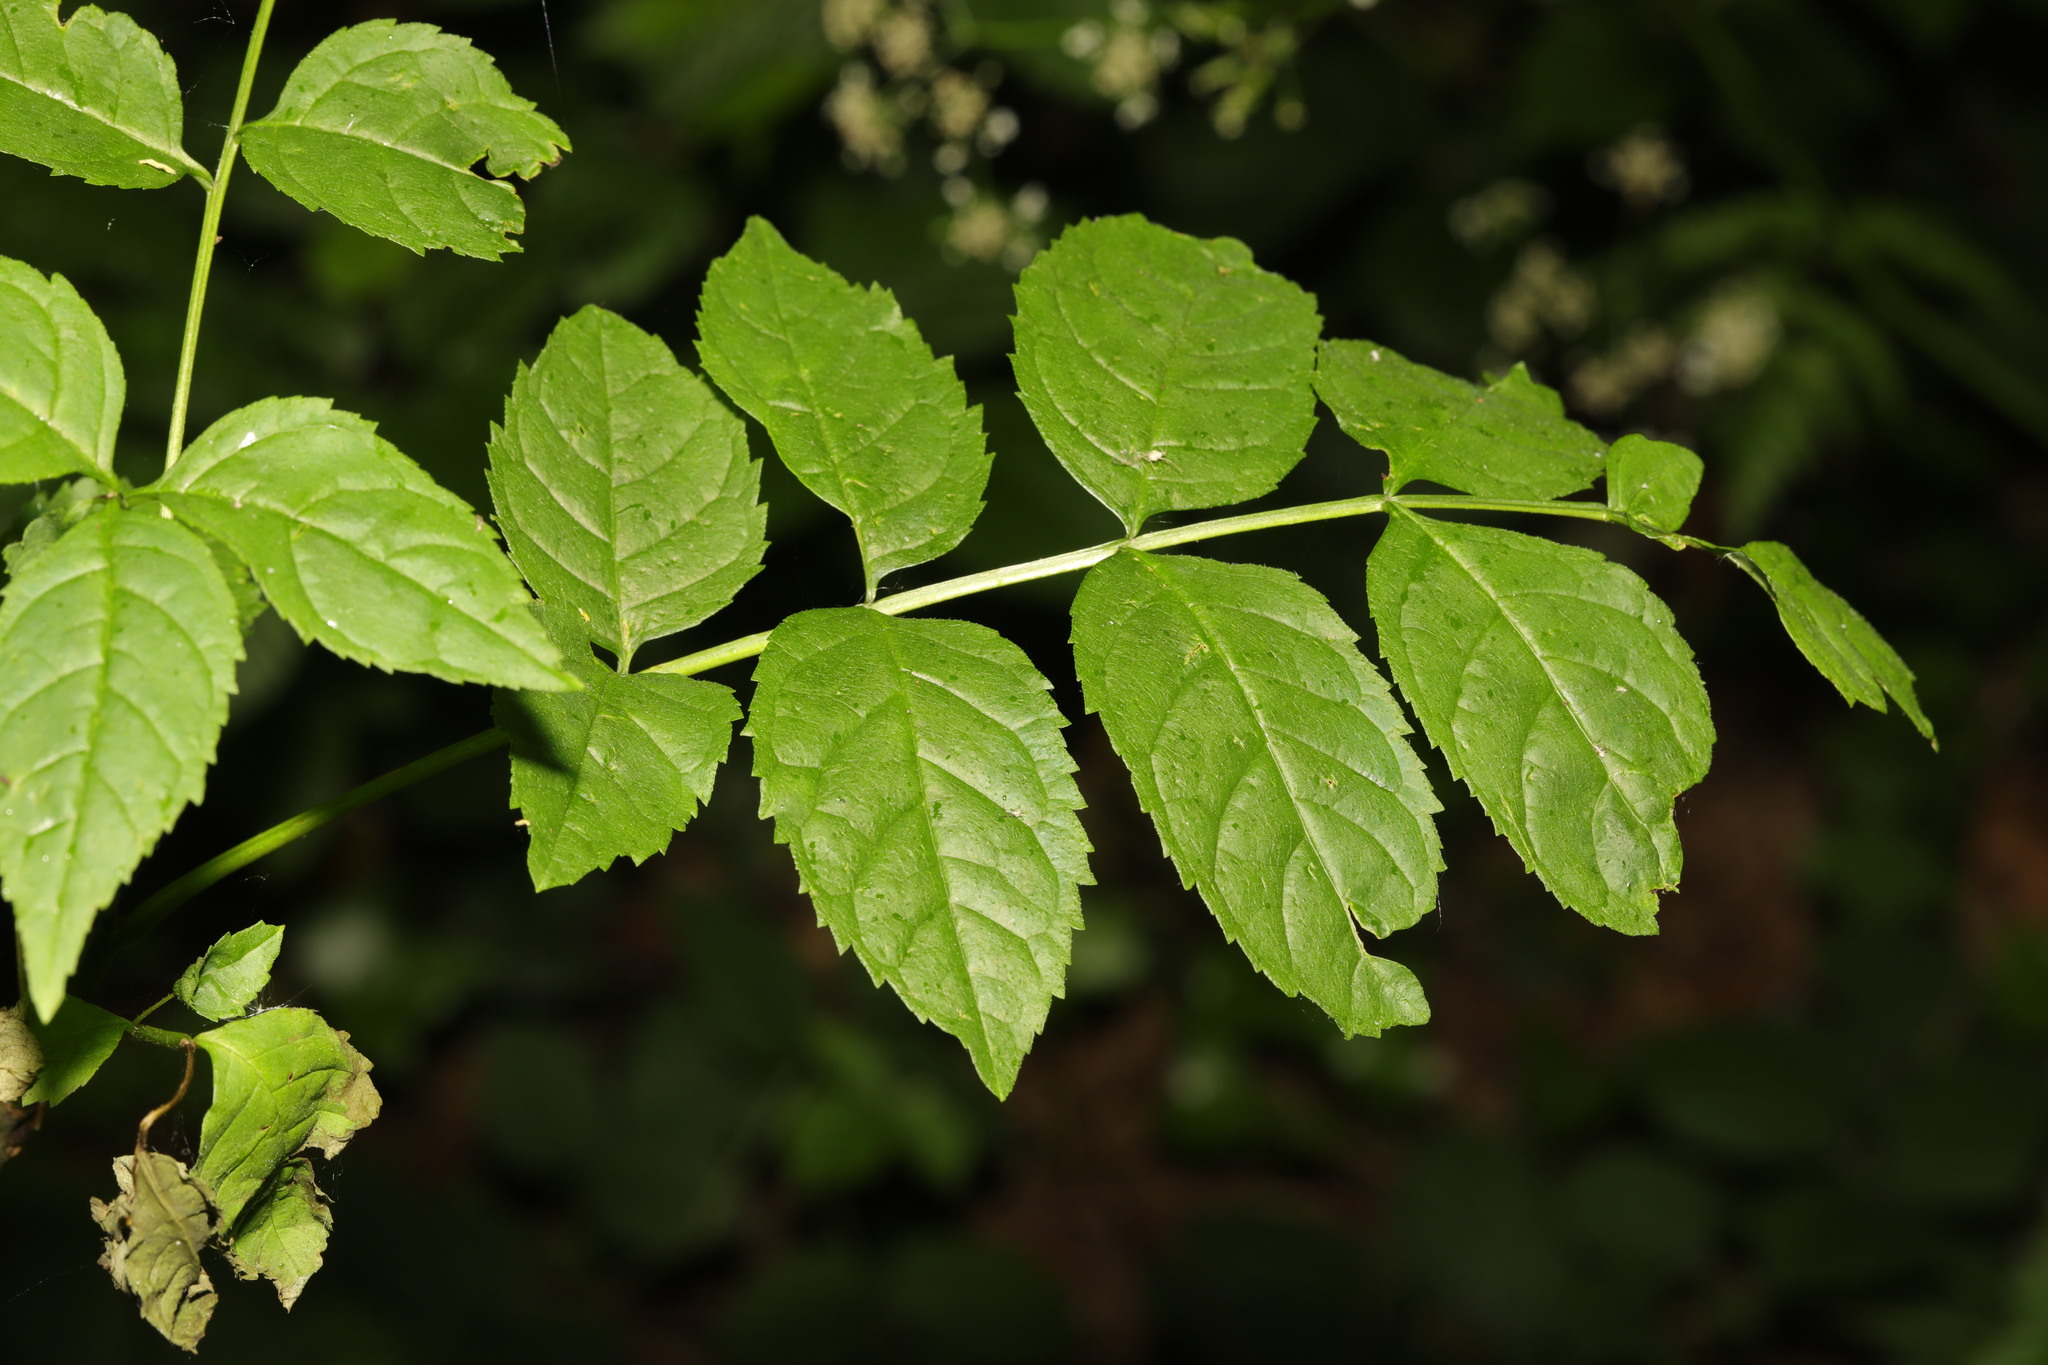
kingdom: Plantae
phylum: Tracheophyta
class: Magnoliopsida
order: Lamiales
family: Oleaceae
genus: Fraxinus
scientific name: Fraxinus excelsior
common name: European ash
